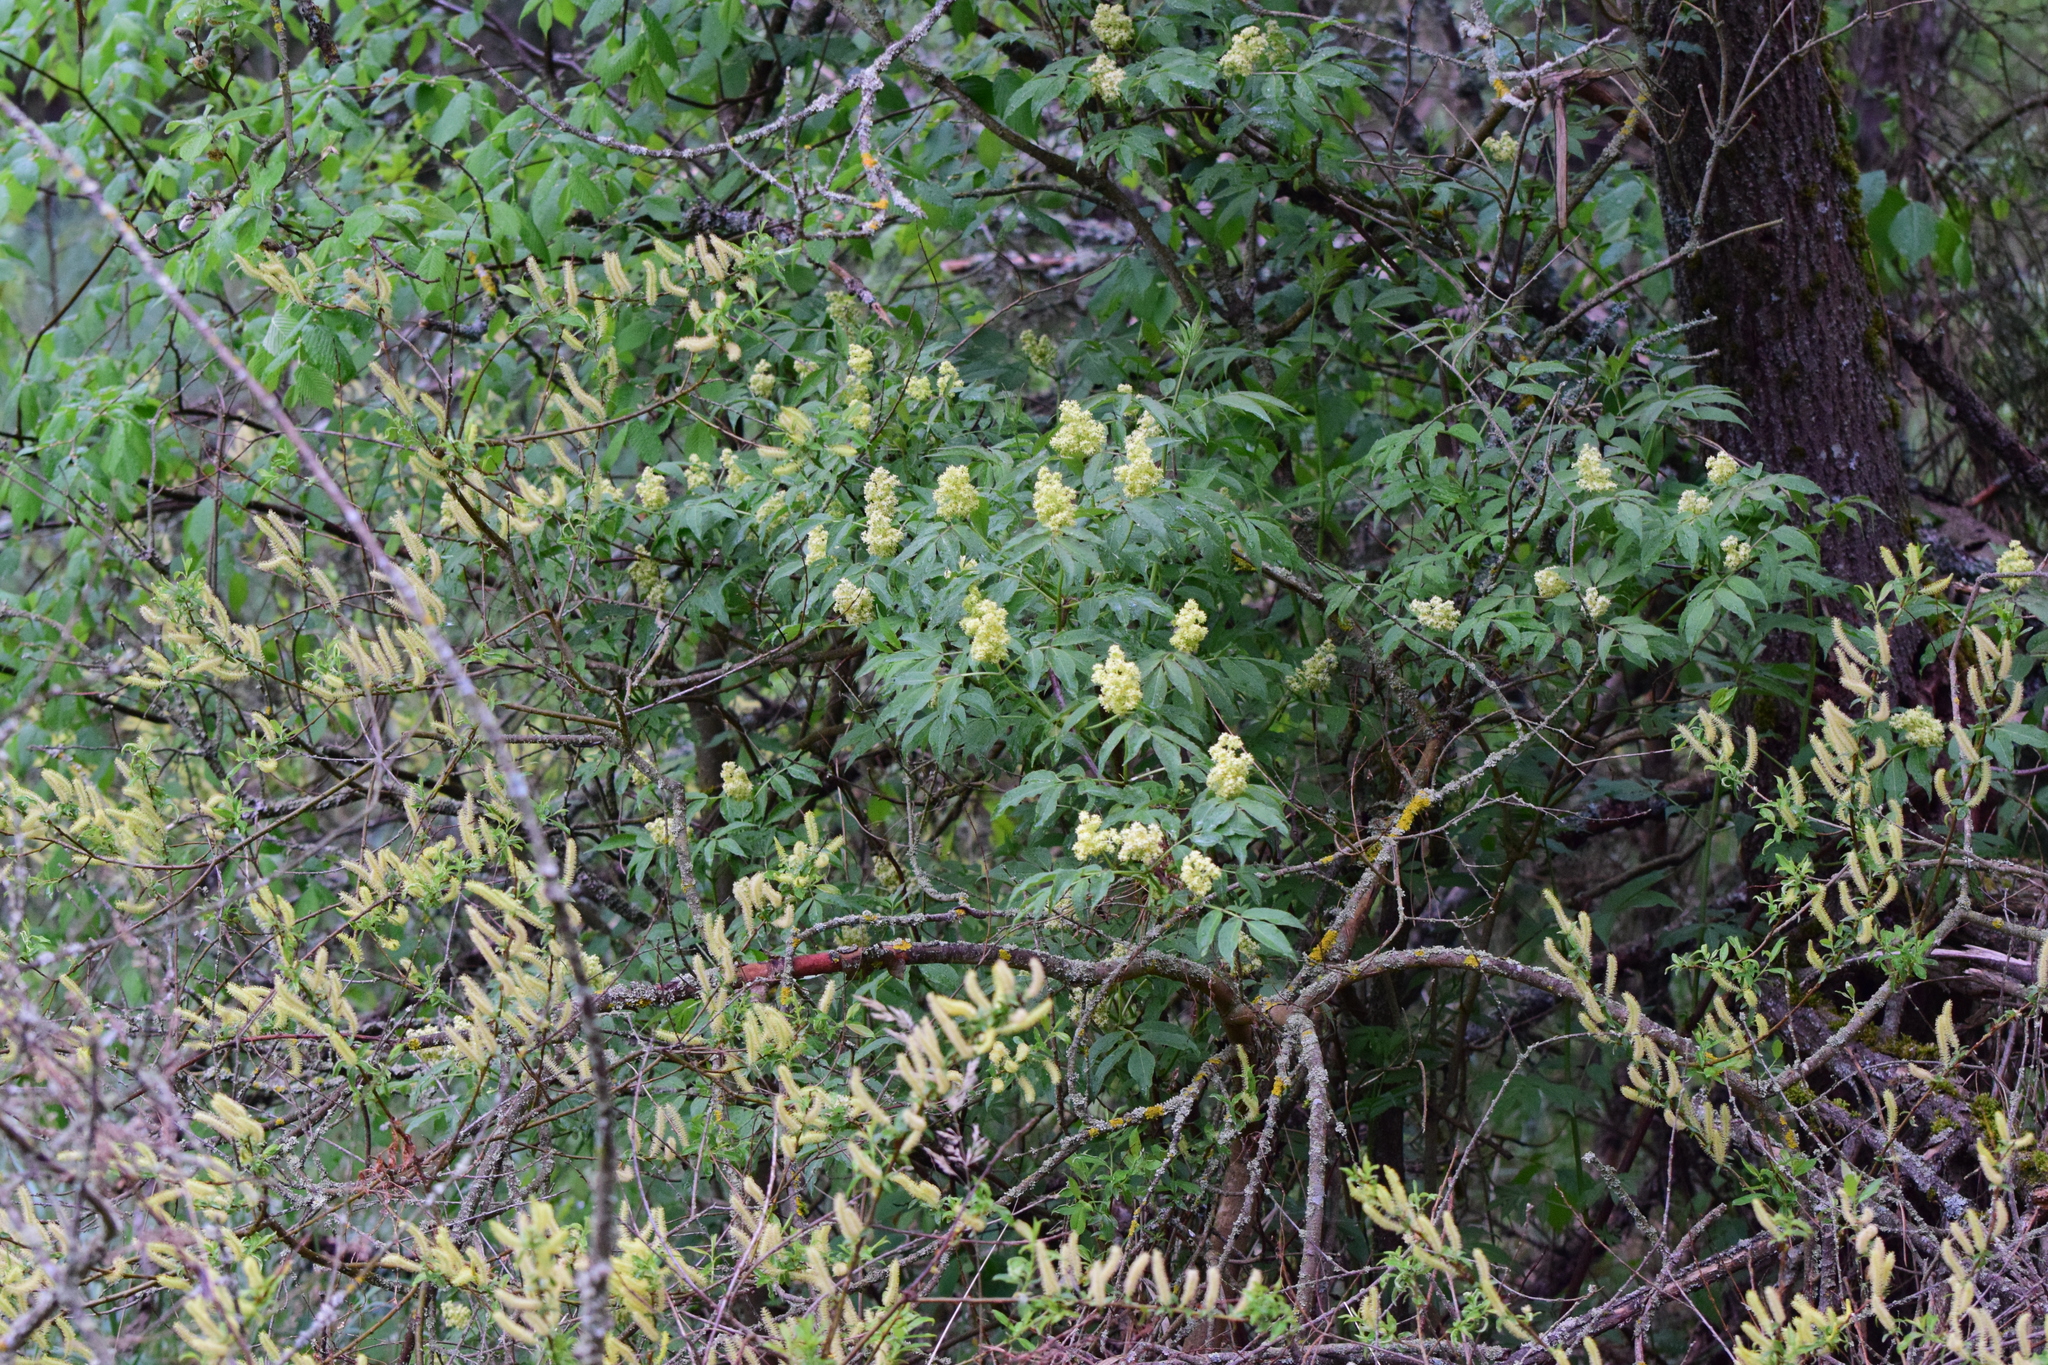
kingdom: Plantae
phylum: Tracheophyta
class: Magnoliopsida
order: Dipsacales
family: Viburnaceae
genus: Sambucus
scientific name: Sambucus racemosa
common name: Red-berried elder
